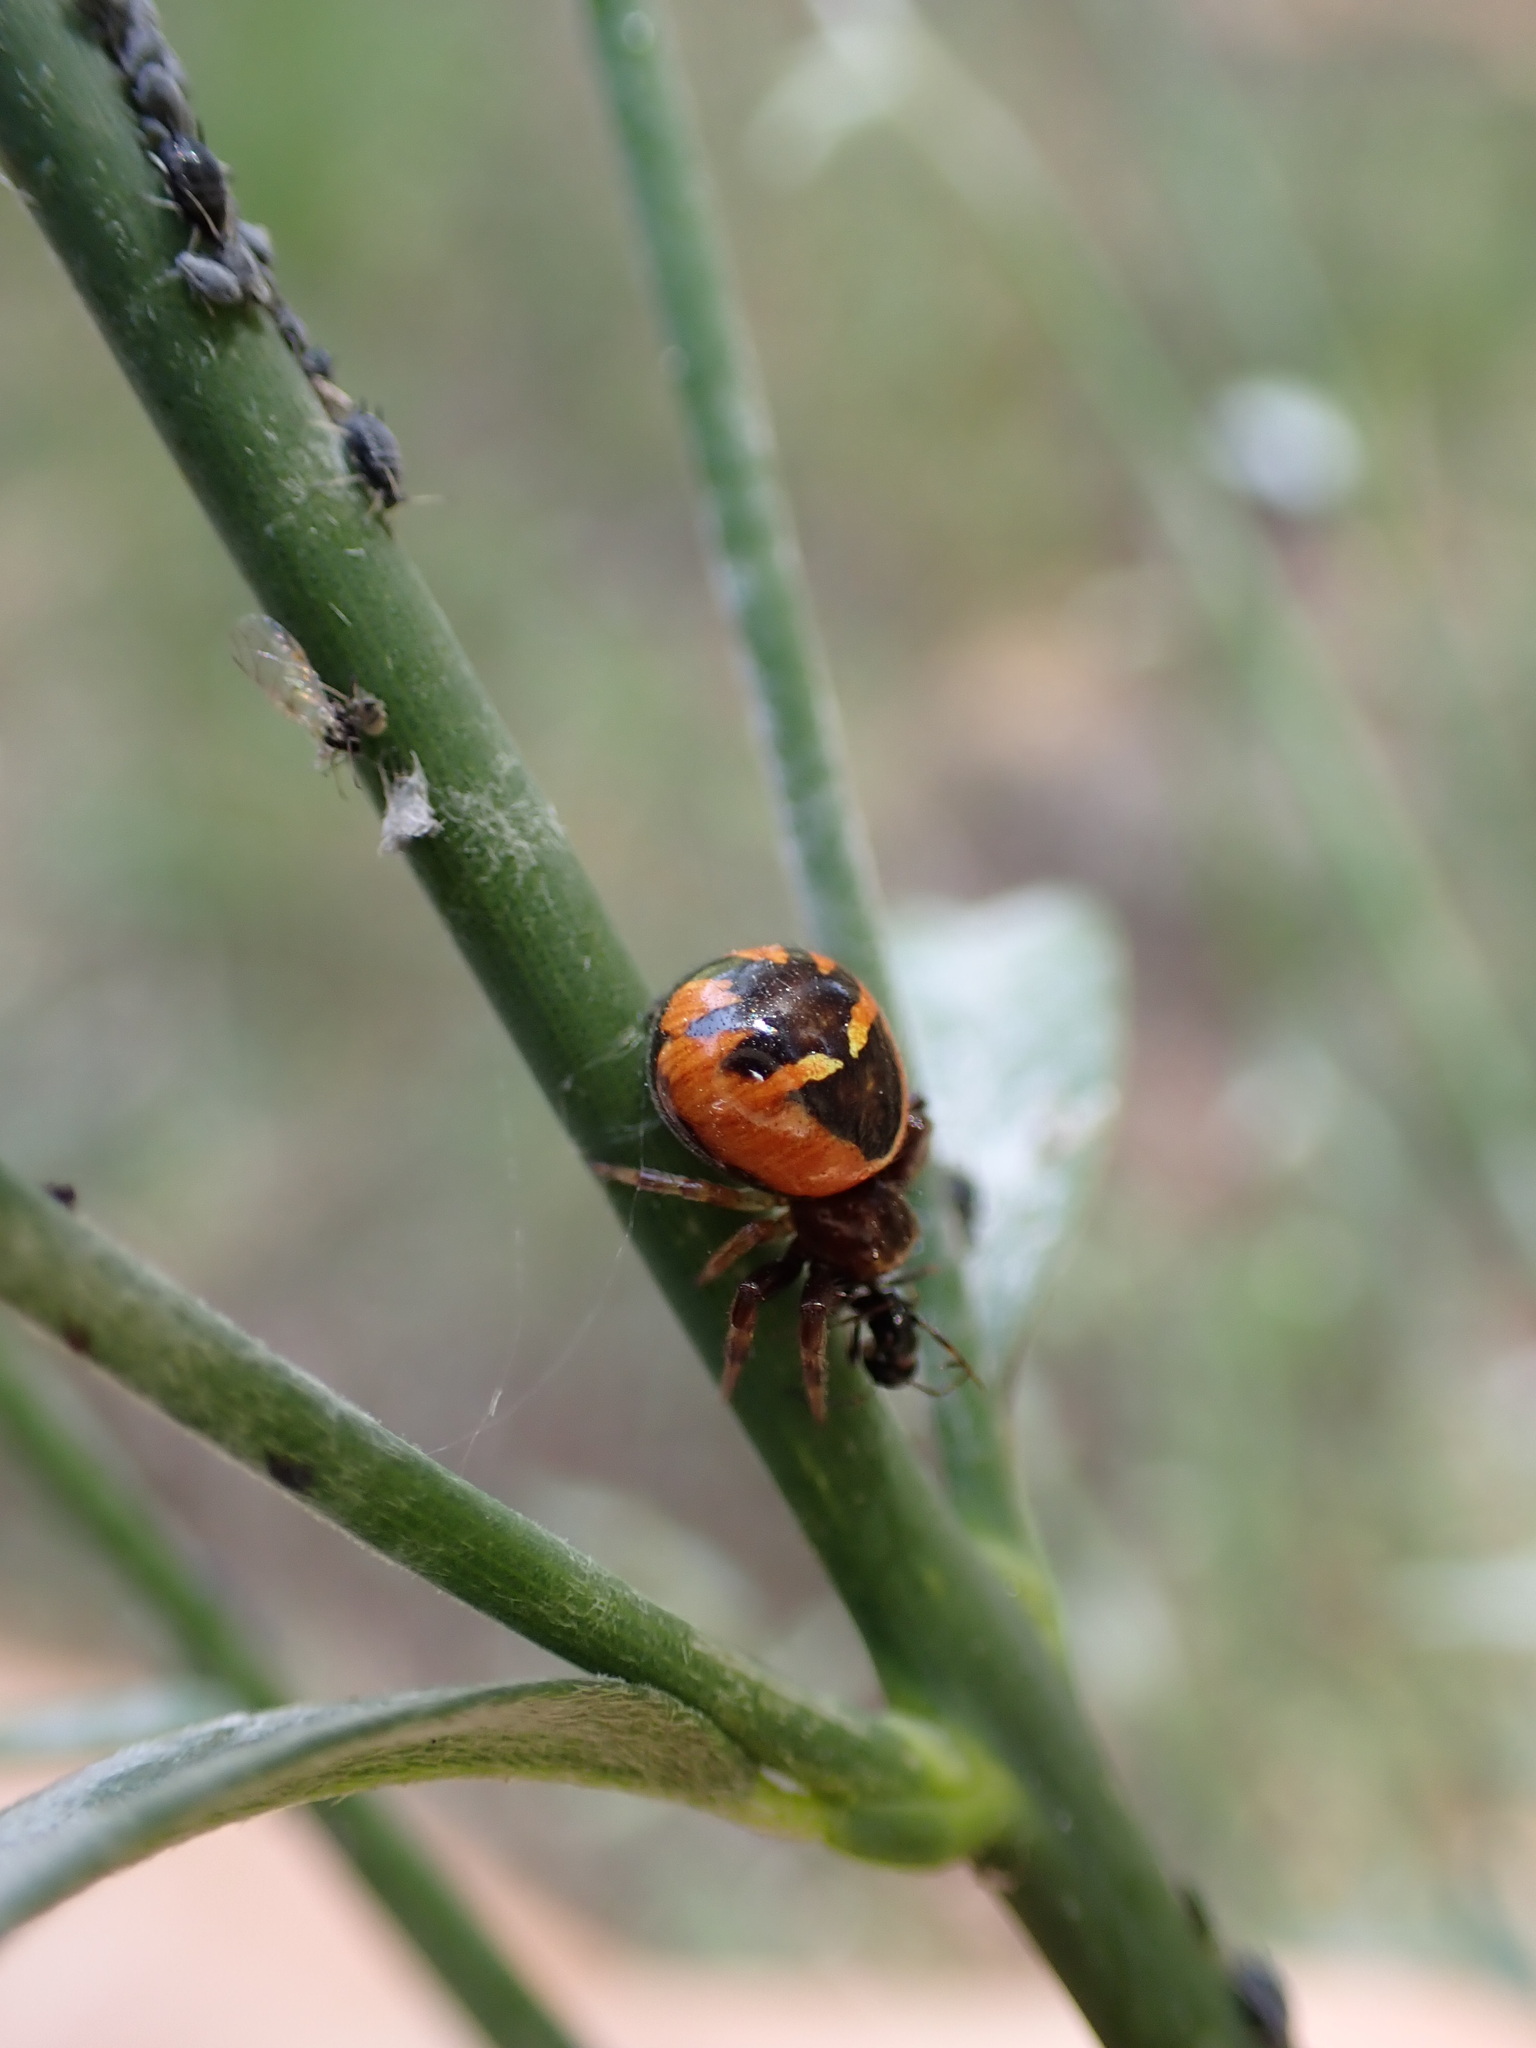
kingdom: Animalia
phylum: Arthropoda
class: Arachnida
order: Araneae
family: Thomisidae
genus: Synema
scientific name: Synema globosum
